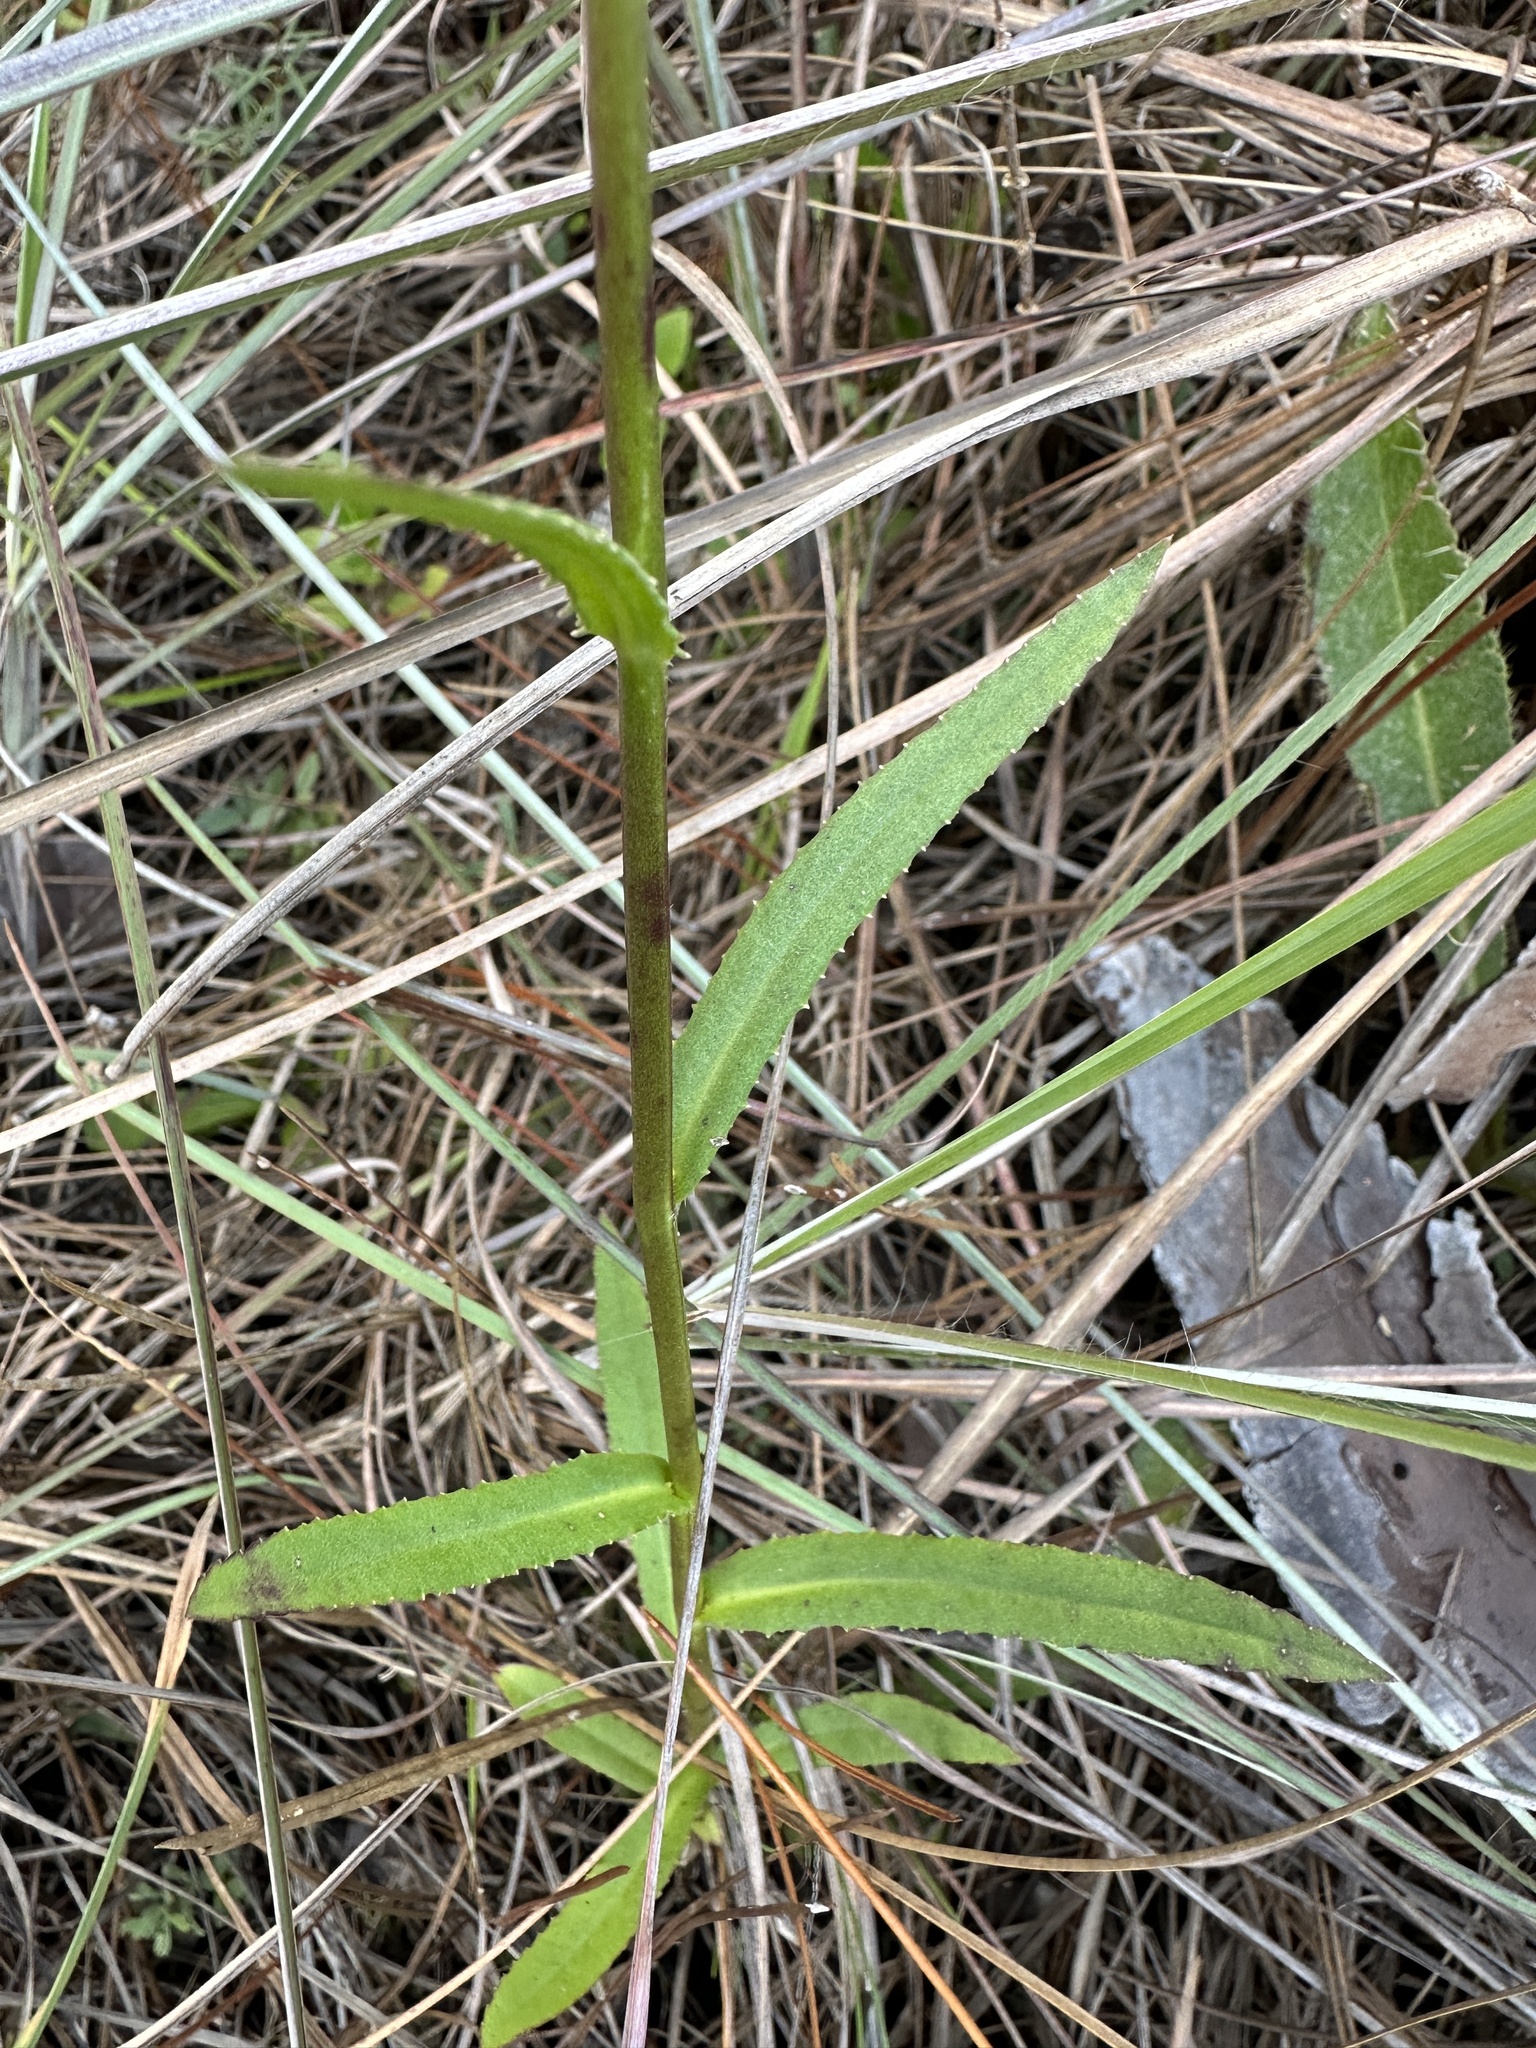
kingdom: Plantae
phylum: Tracheophyta
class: Magnoliopsida
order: Asterales
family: Campanulaceae
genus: Lobelia
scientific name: Lobelia glandulosa
